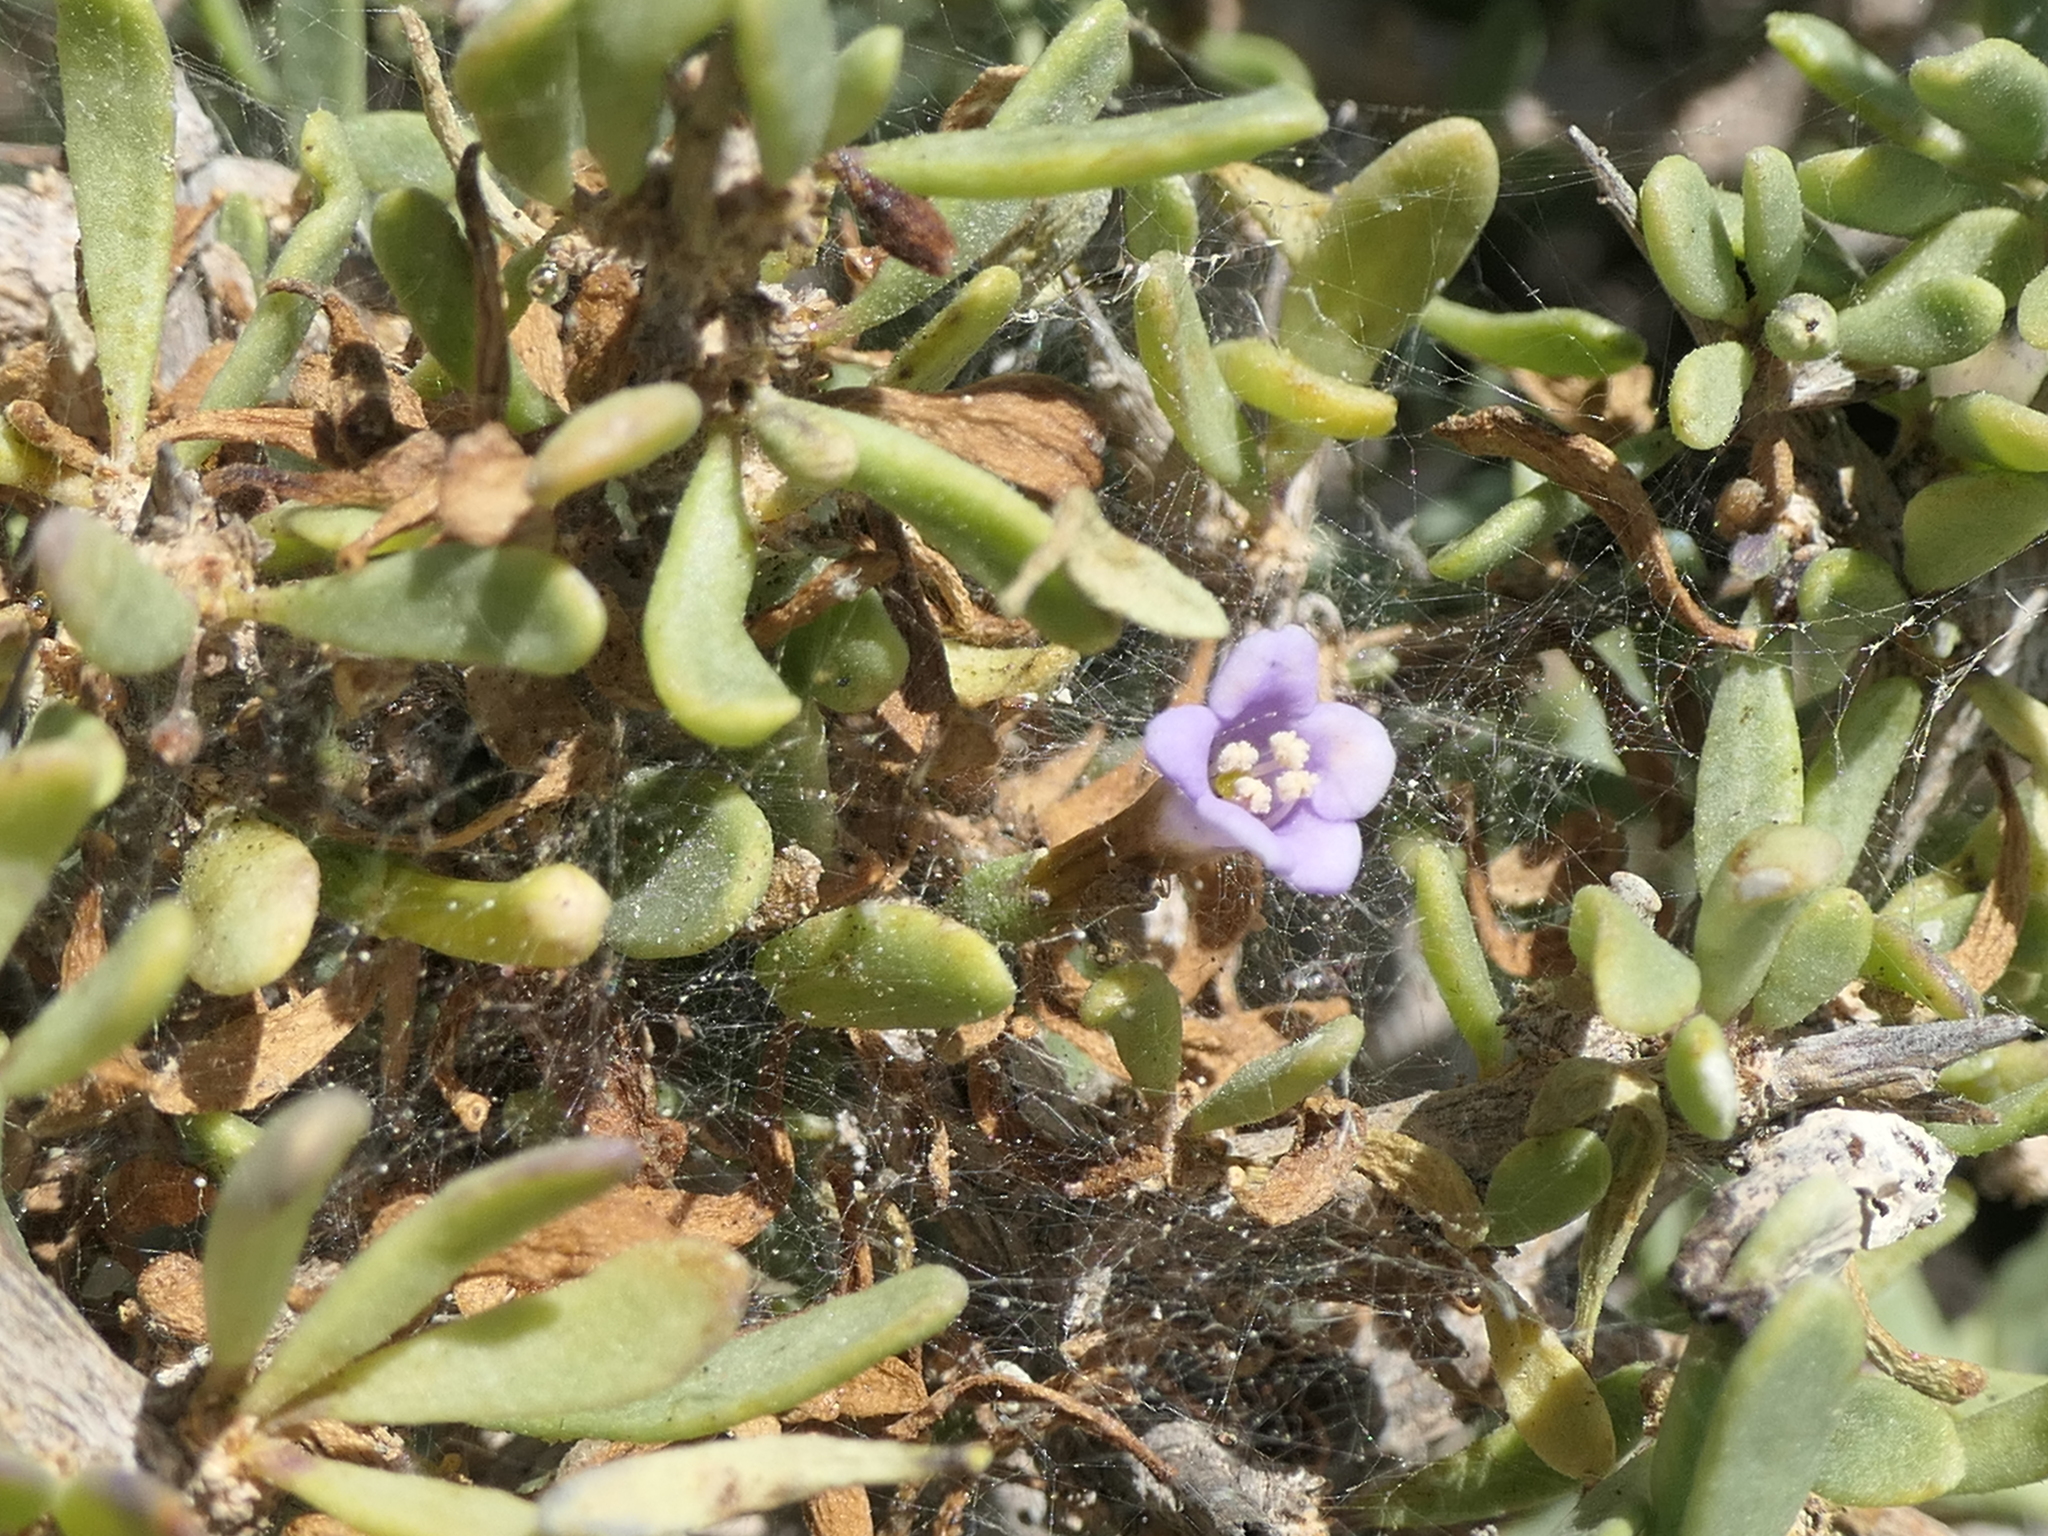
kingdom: Plantae
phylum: Tracheophyta
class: Magnoliopsida
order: Solanales
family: Solanaceae
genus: Lycium
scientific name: Lycium intricatum
